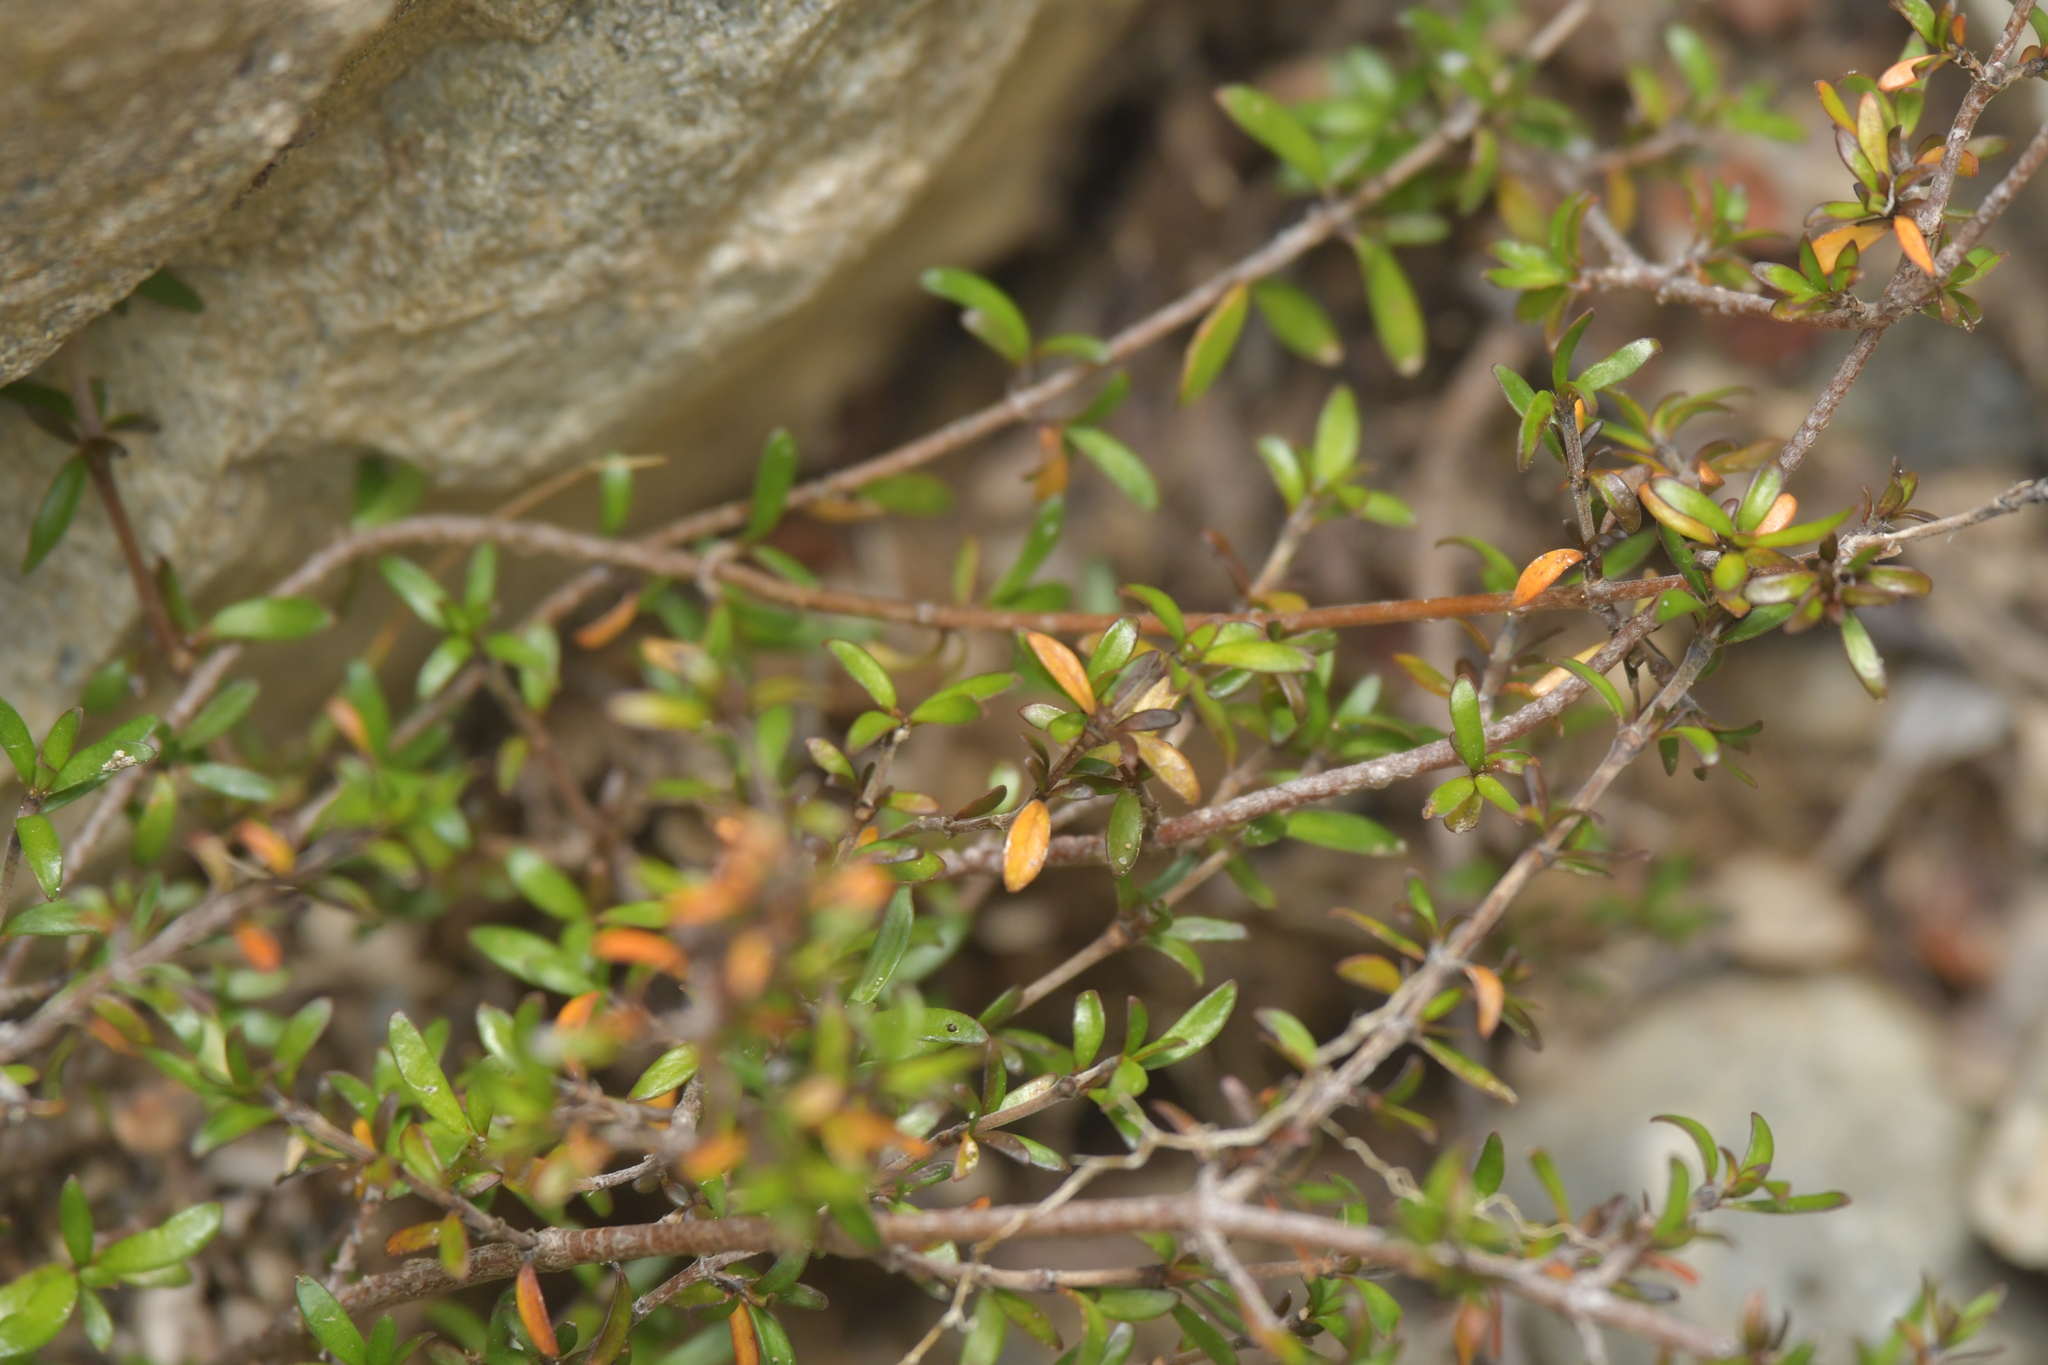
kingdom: Plantae
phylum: Tracheophyta
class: Magnoliopsida
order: Gentianales
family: Rubiaceae
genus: Coprosma
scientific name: Coprosma cheesemanii
